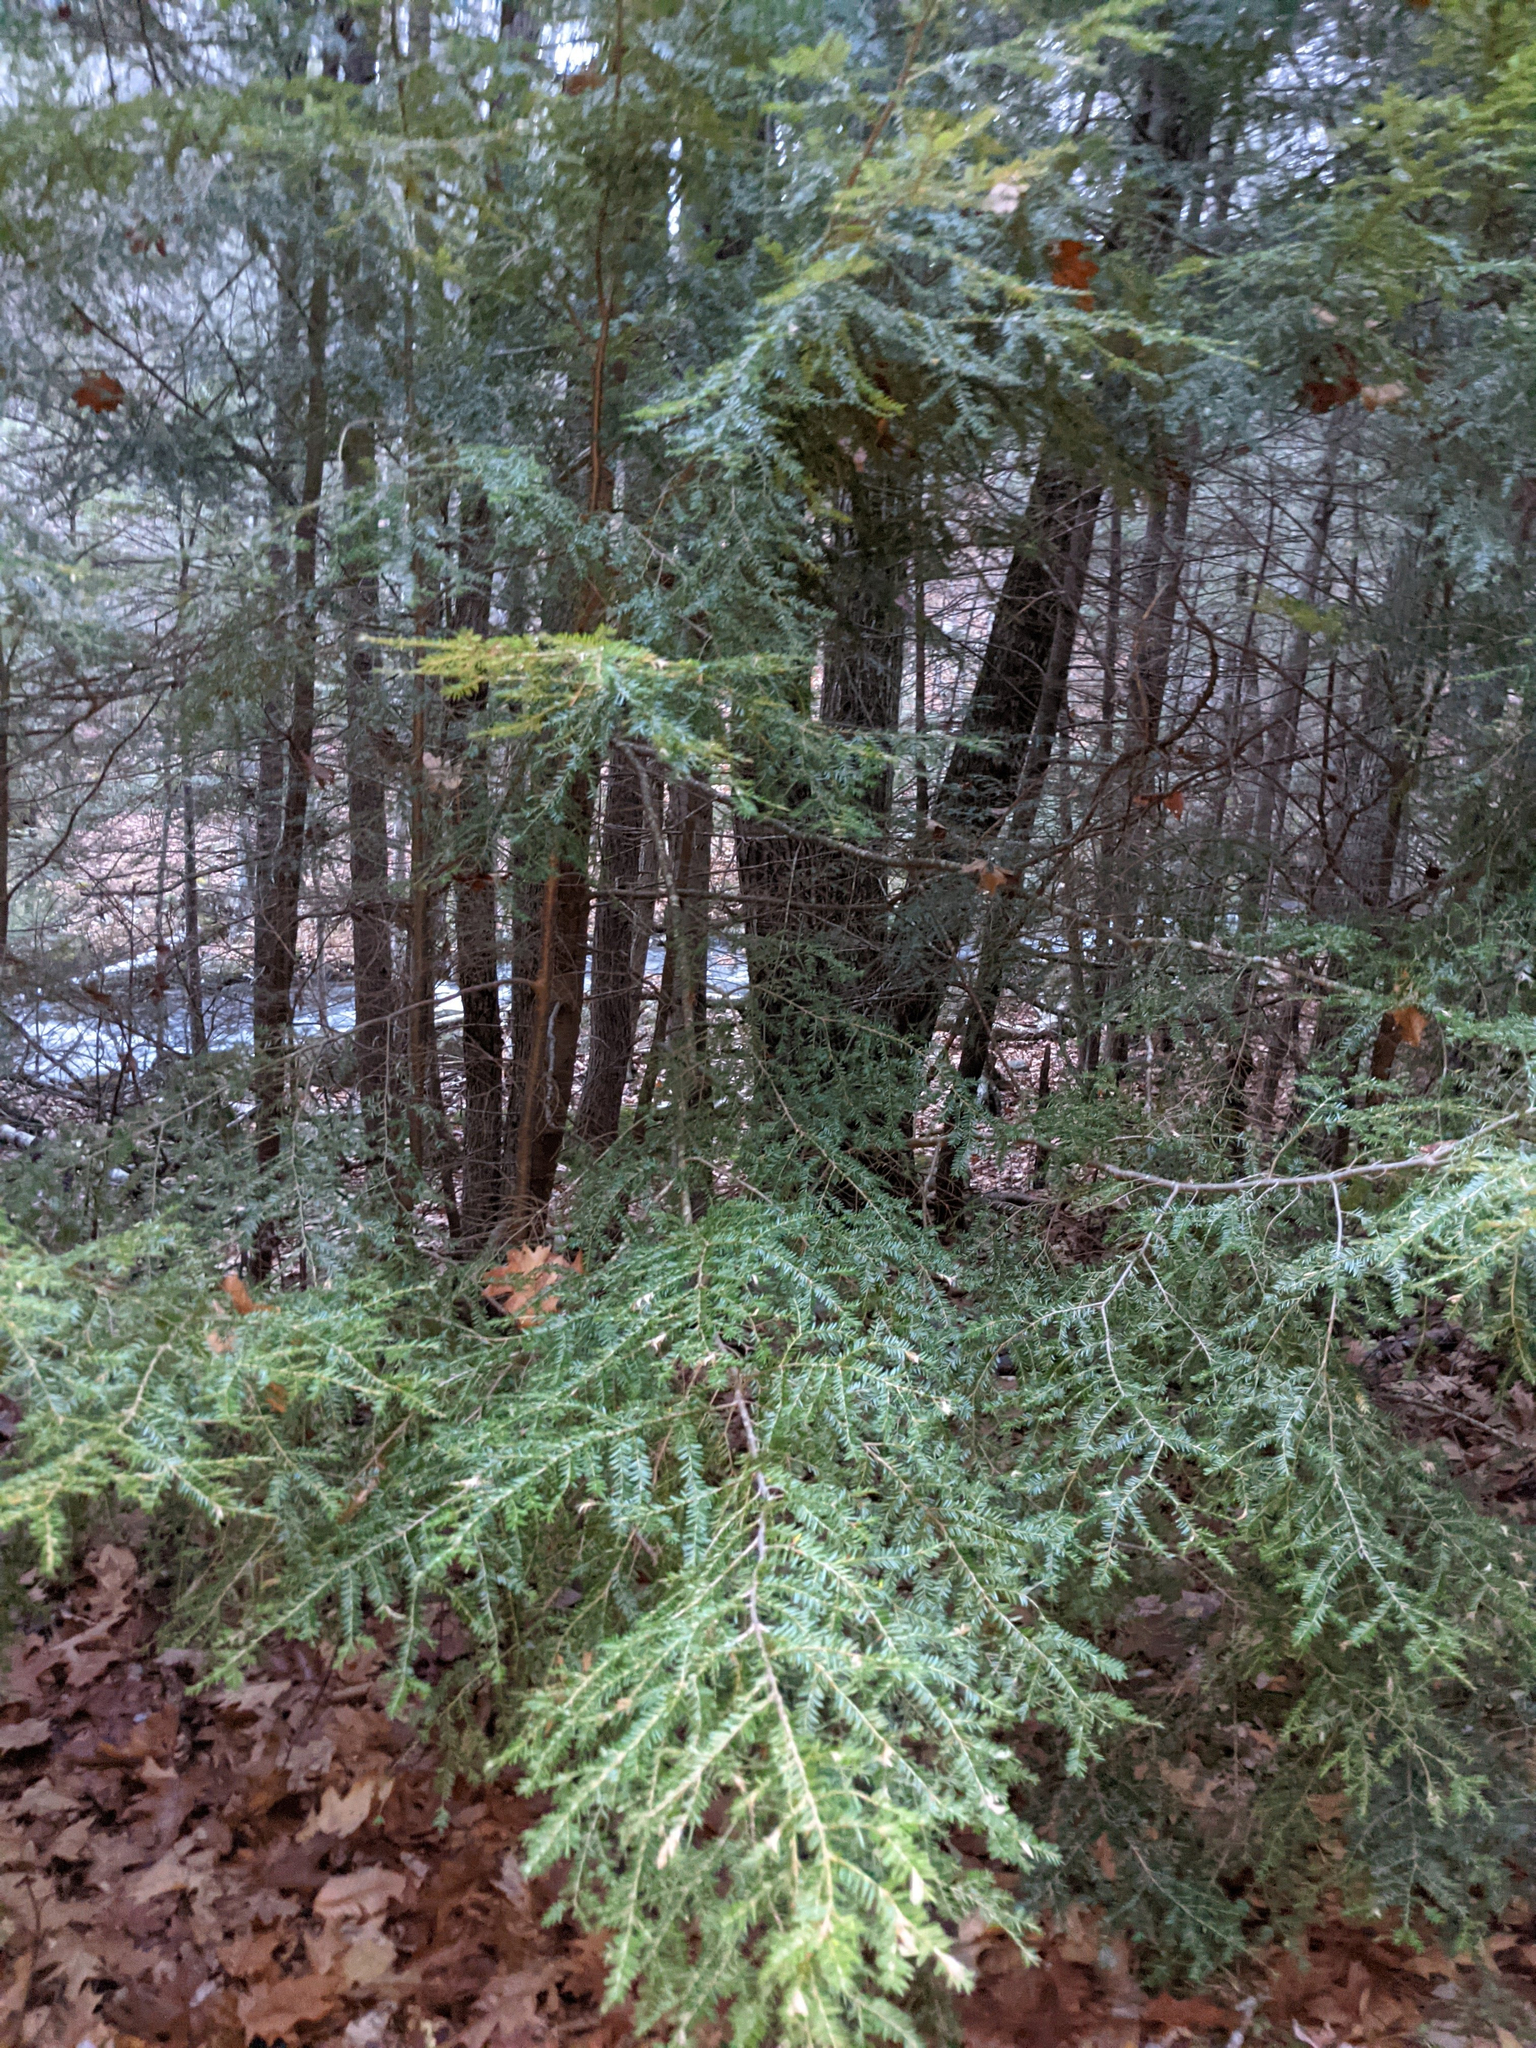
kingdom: Plantae
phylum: Tracheophyta
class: Pinopsida
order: Pinales
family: Pinaceae
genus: Tsuga
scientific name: Tsuga canadensis
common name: Eastern hemlock
